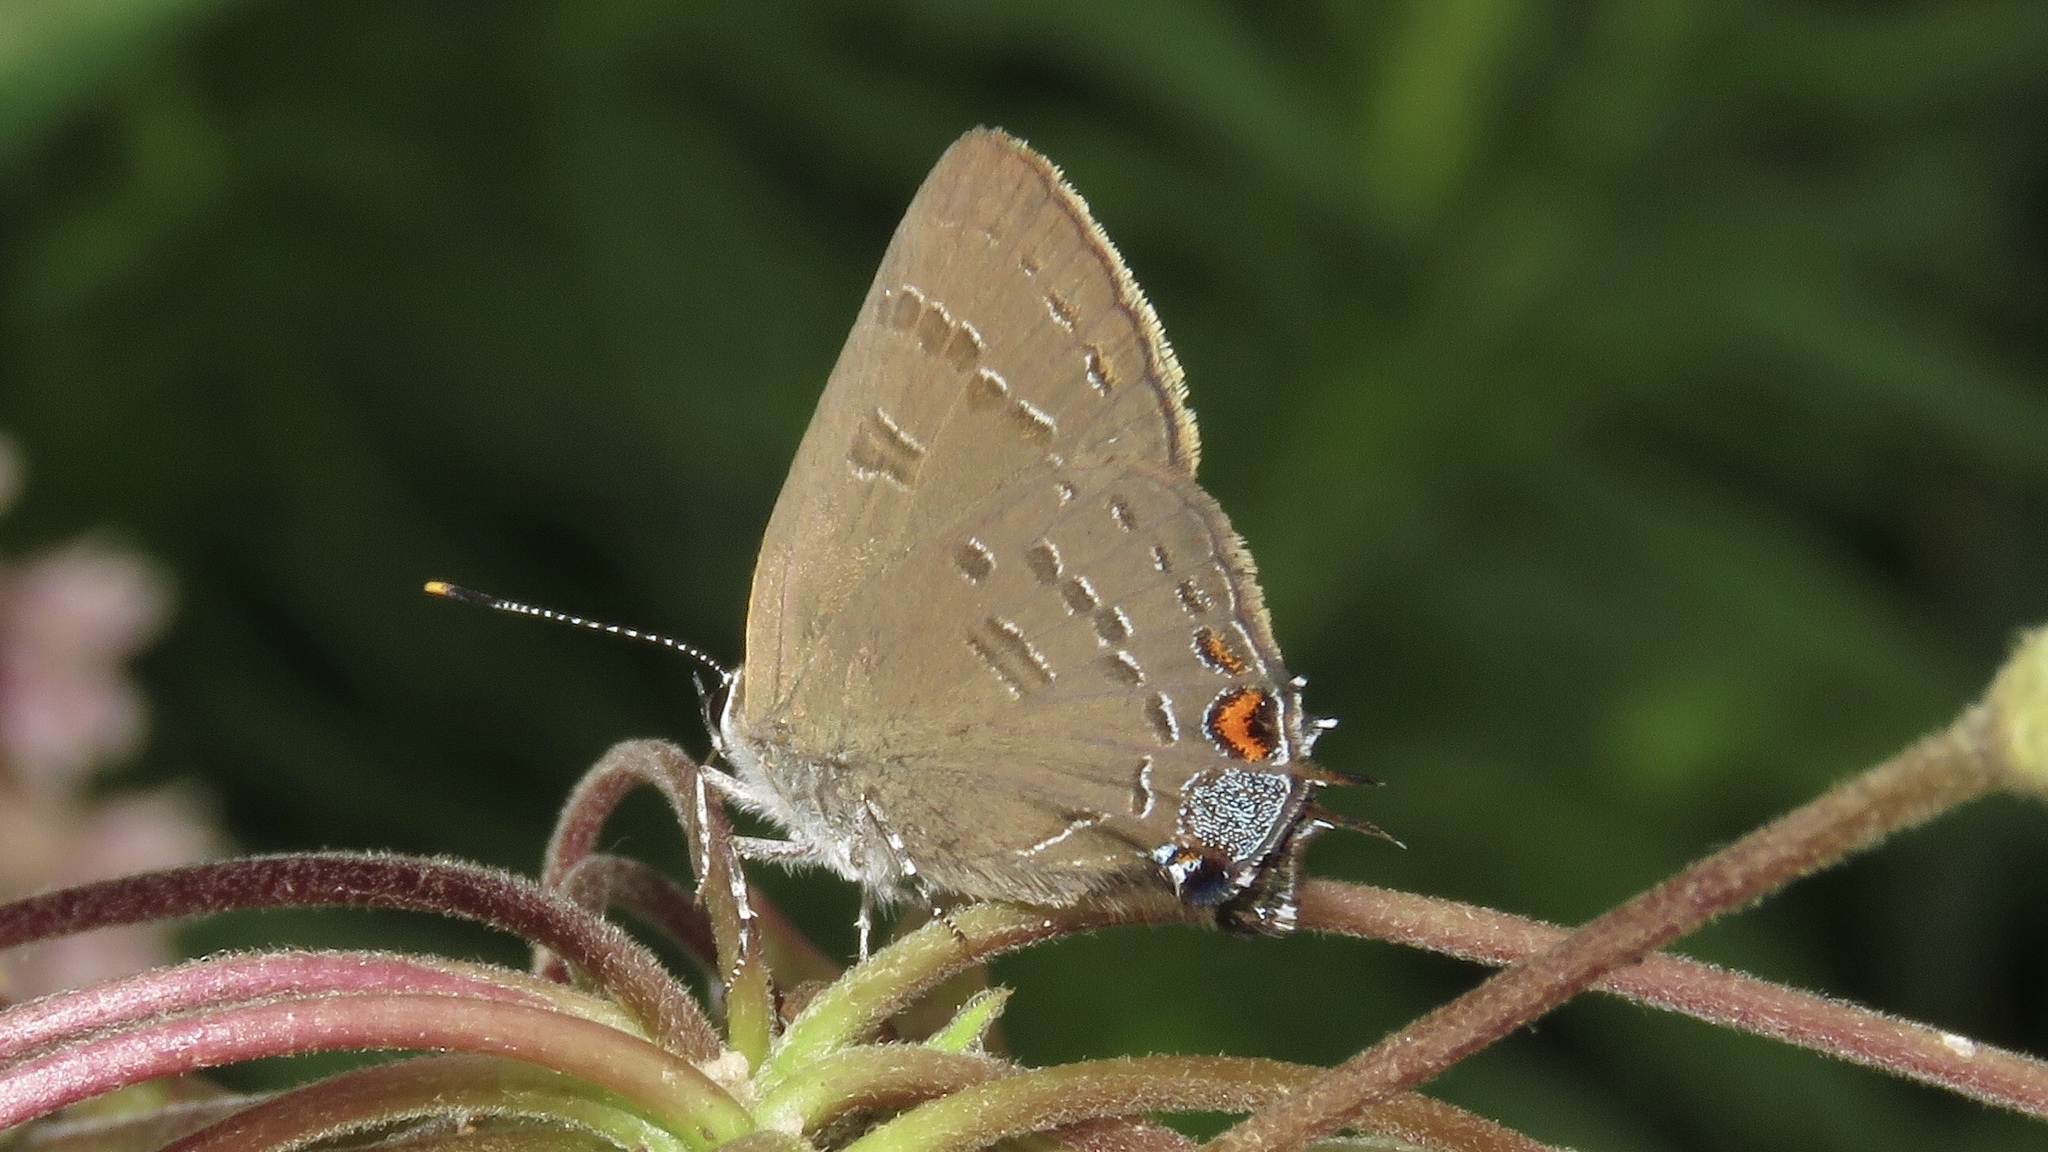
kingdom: Animalia
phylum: Arthropoda
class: Insecta
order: Lepidoptera
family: Lycaenidae
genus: Satyrium
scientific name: Satyrium calanus
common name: Banded hairstreak
